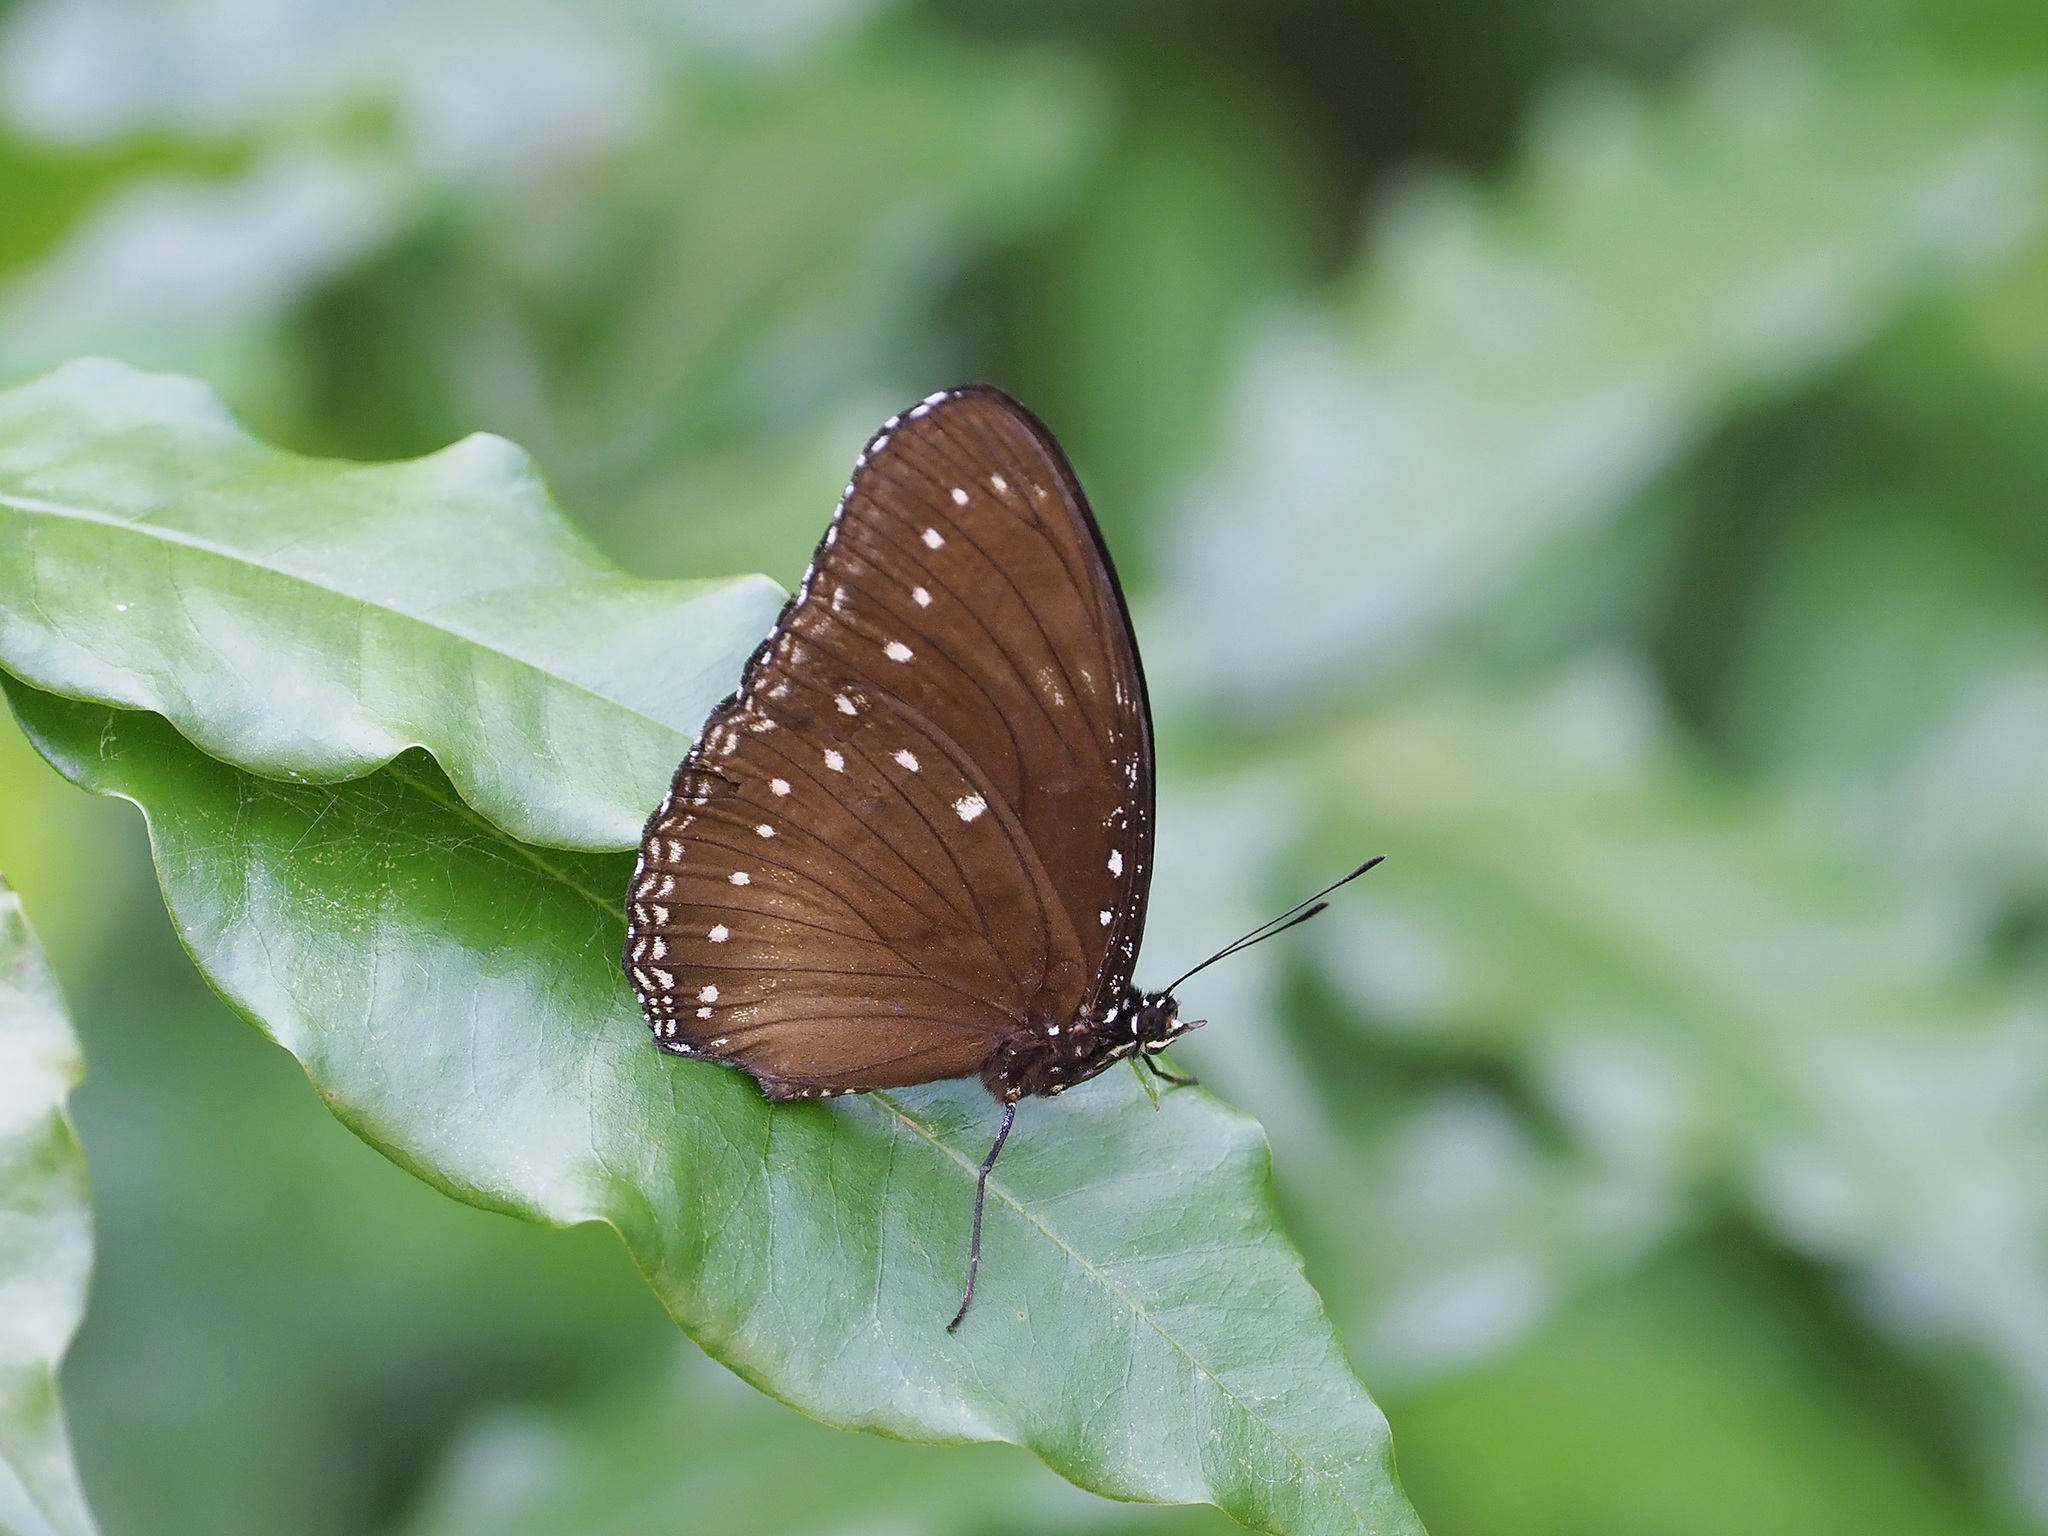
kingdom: Animalia
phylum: Arthropoda
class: Insecta
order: Lepidoptera
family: Nymphalidae
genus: Hypolimnas
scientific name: Hypolimnas anomala
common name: Malayan eggfly
